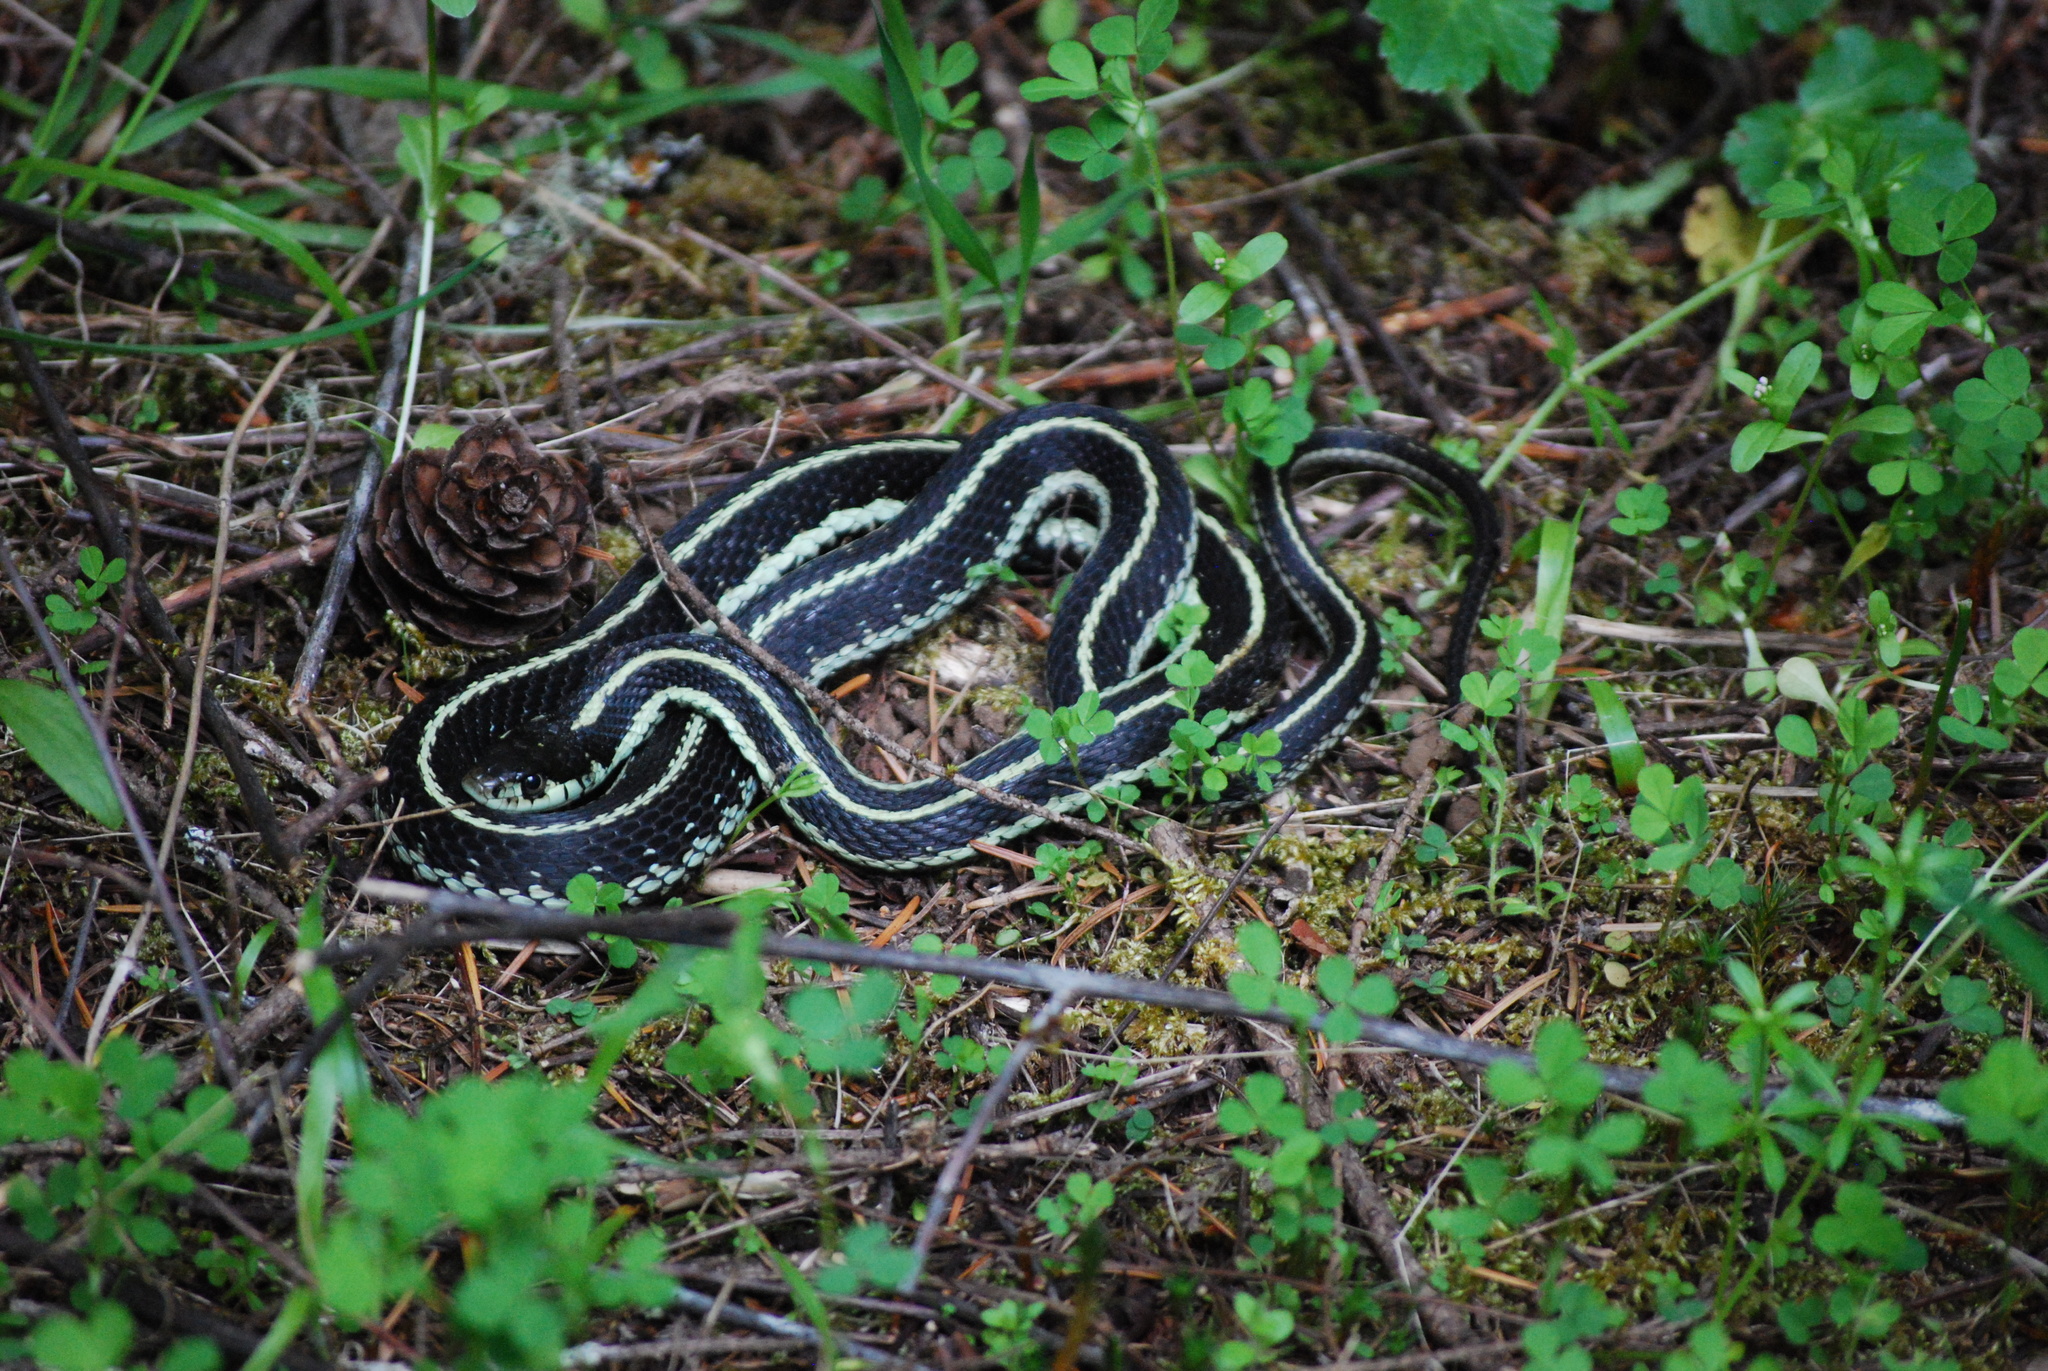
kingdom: Animalia
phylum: Chordata
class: Squamata
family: Colubridae
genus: Thamnophis
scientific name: Thamnophis sirtalis
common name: Common garter snake
